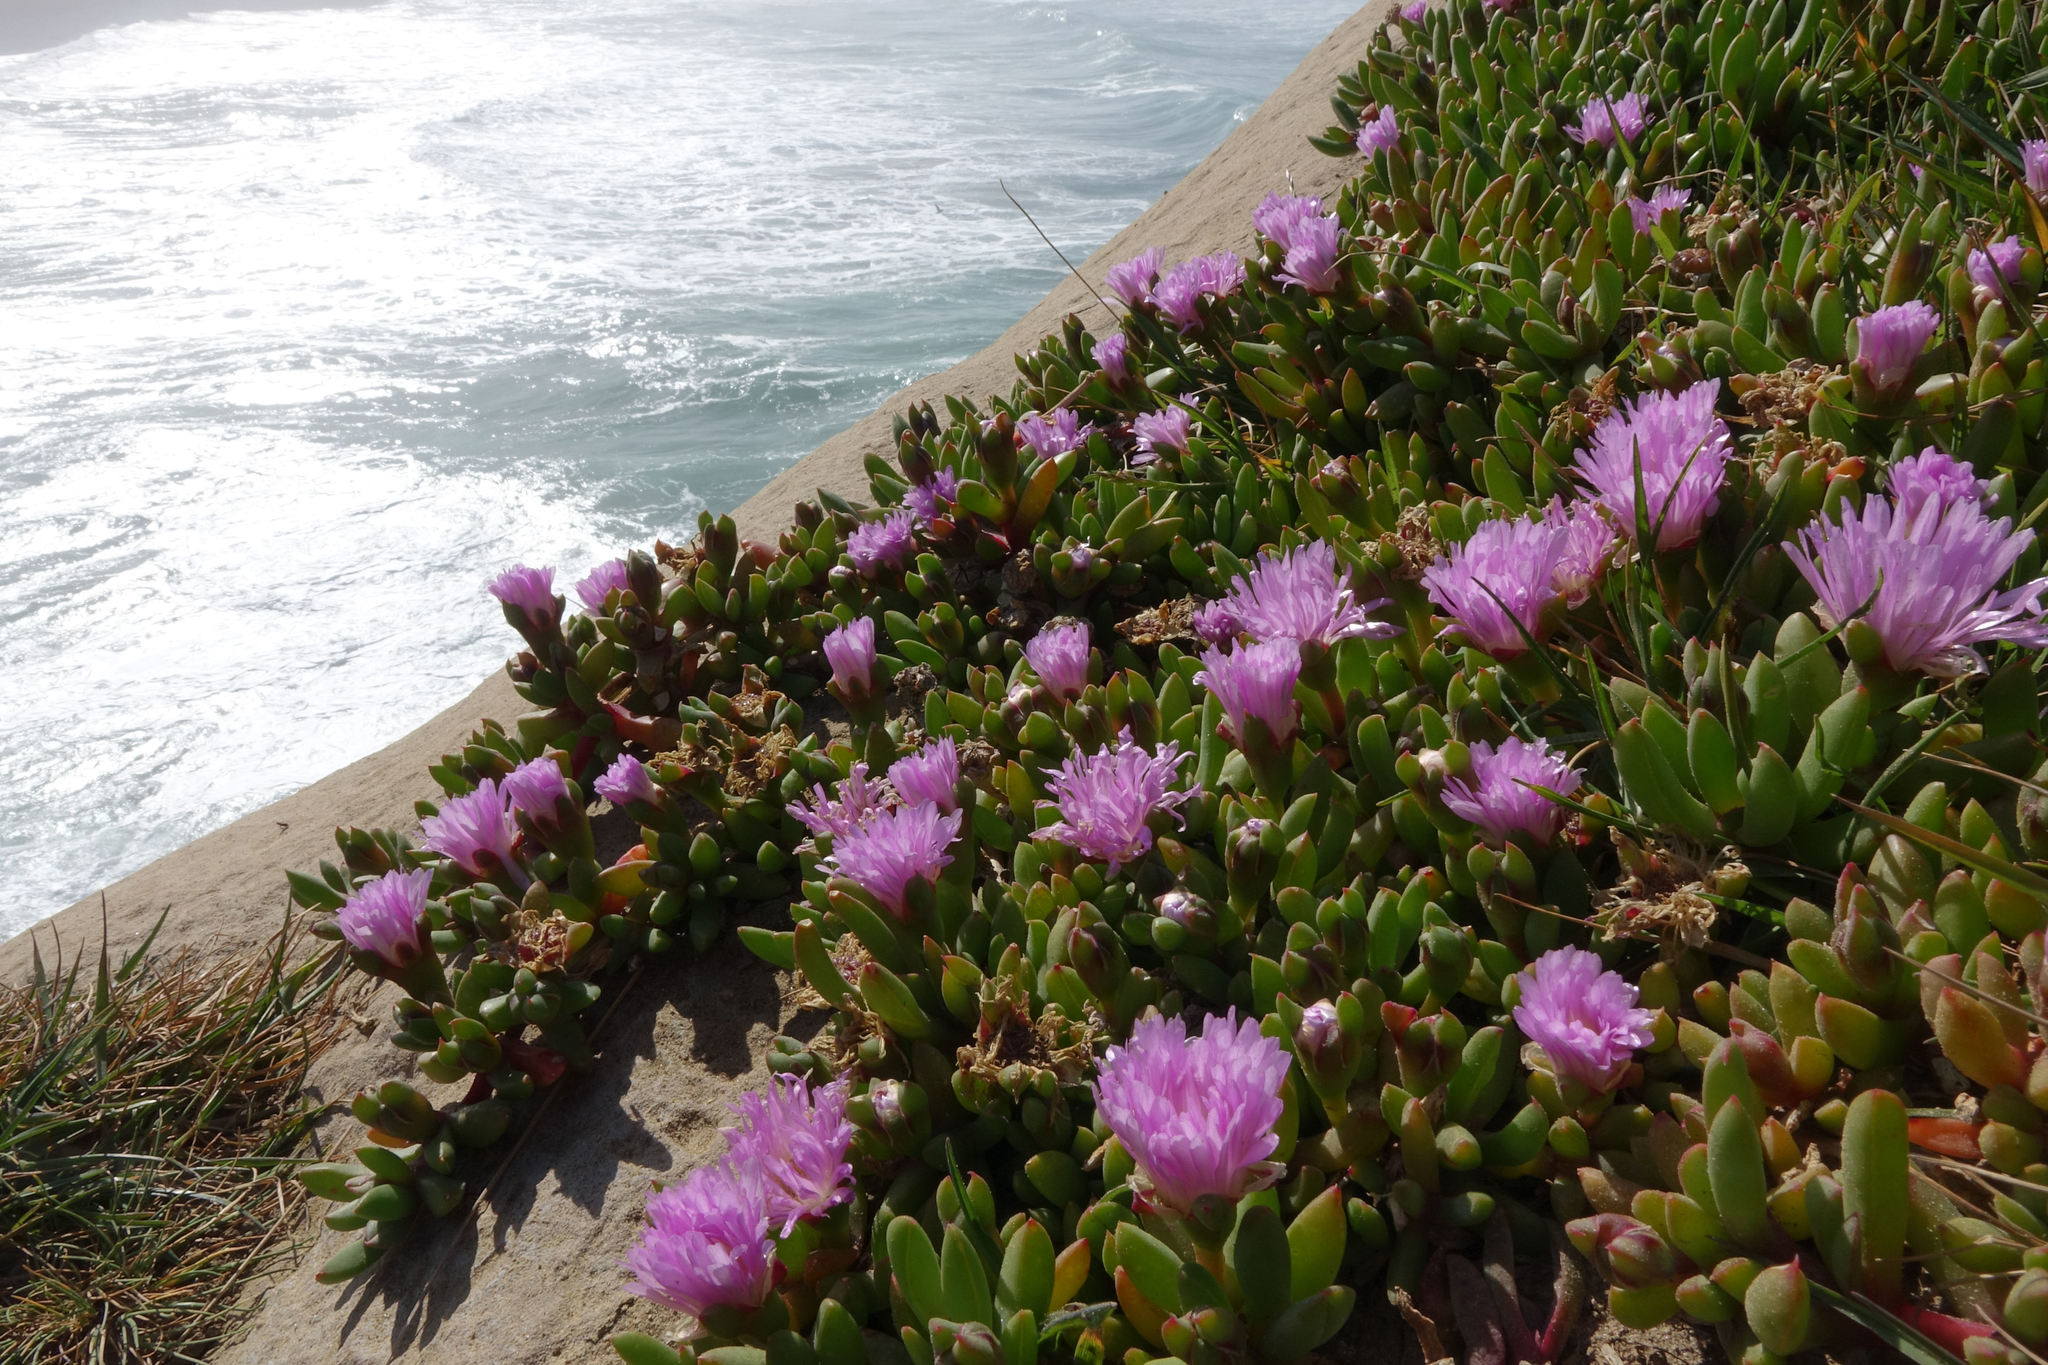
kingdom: Plantae
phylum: Tracheophyta
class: Magnoliopsida
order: Caryophyllales
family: Aizoaceae
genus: Disphyma
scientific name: Disphyma australe
